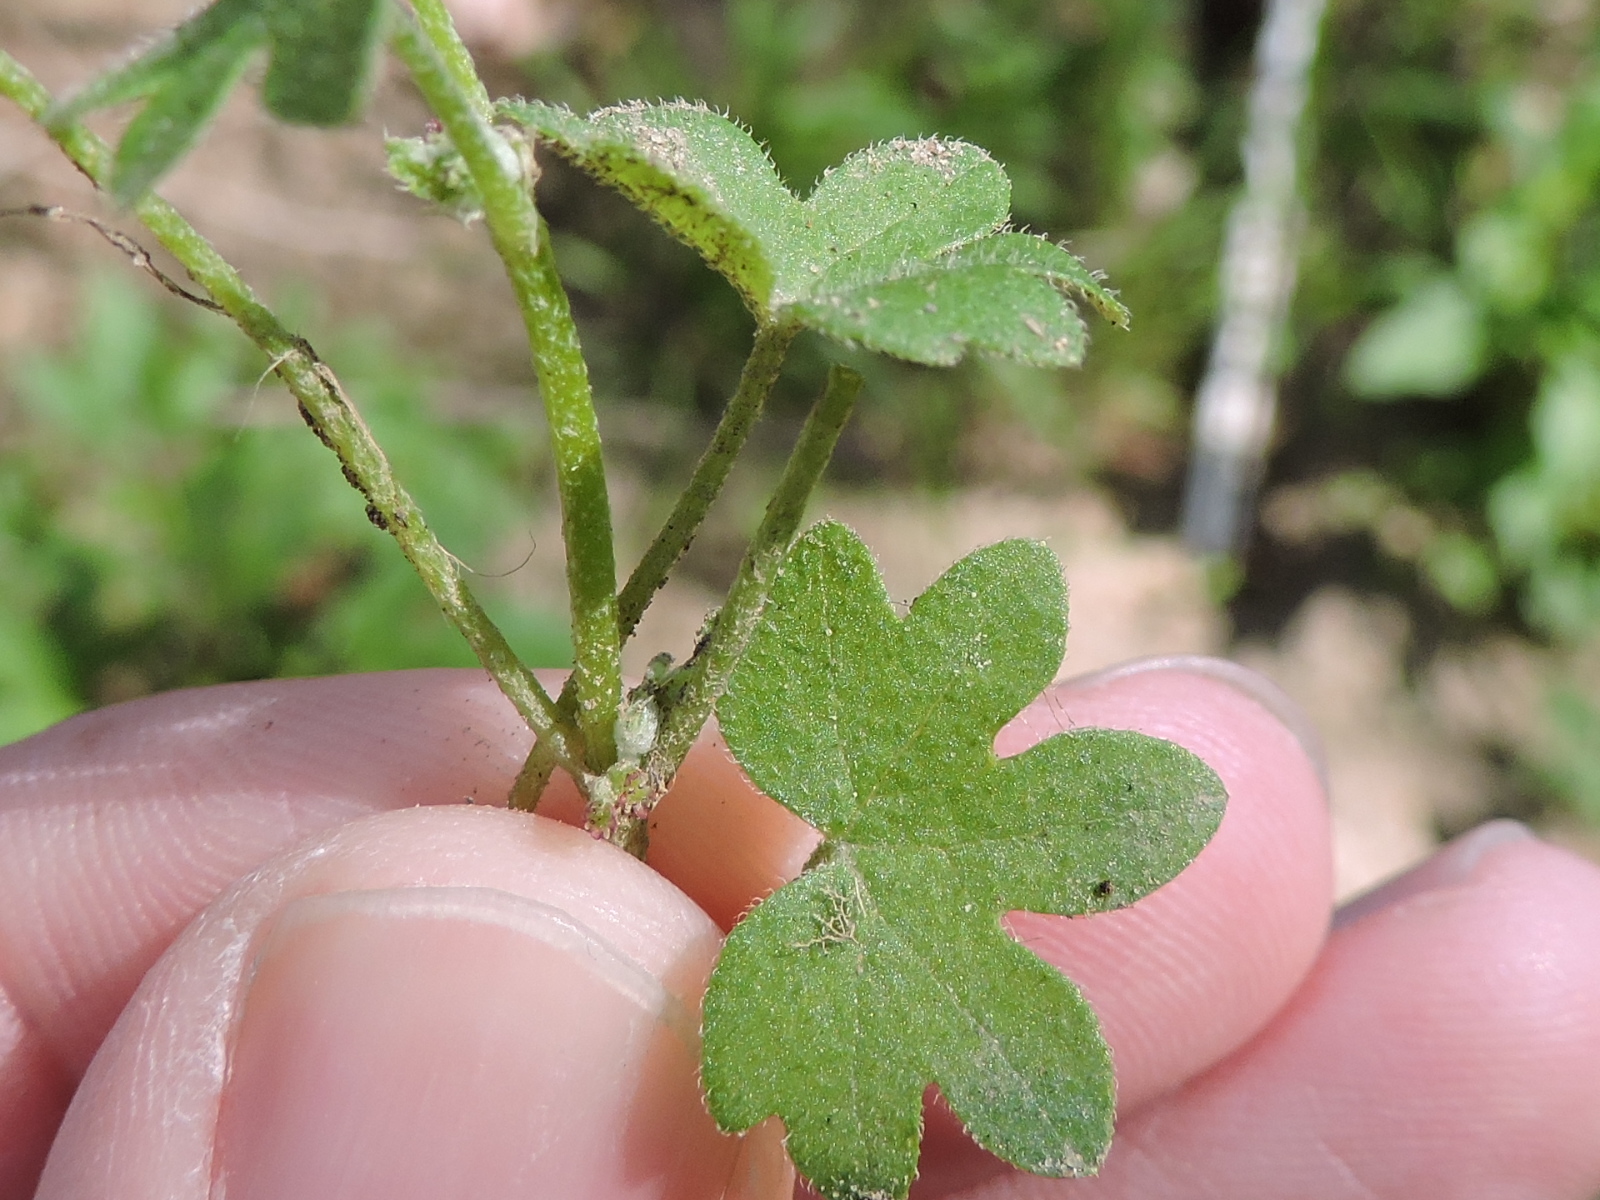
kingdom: Plantae
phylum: Tracheophyta
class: Magnoliopsida
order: Apiales
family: Apiaceae
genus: Bowlesia
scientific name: Bowlesia incana
